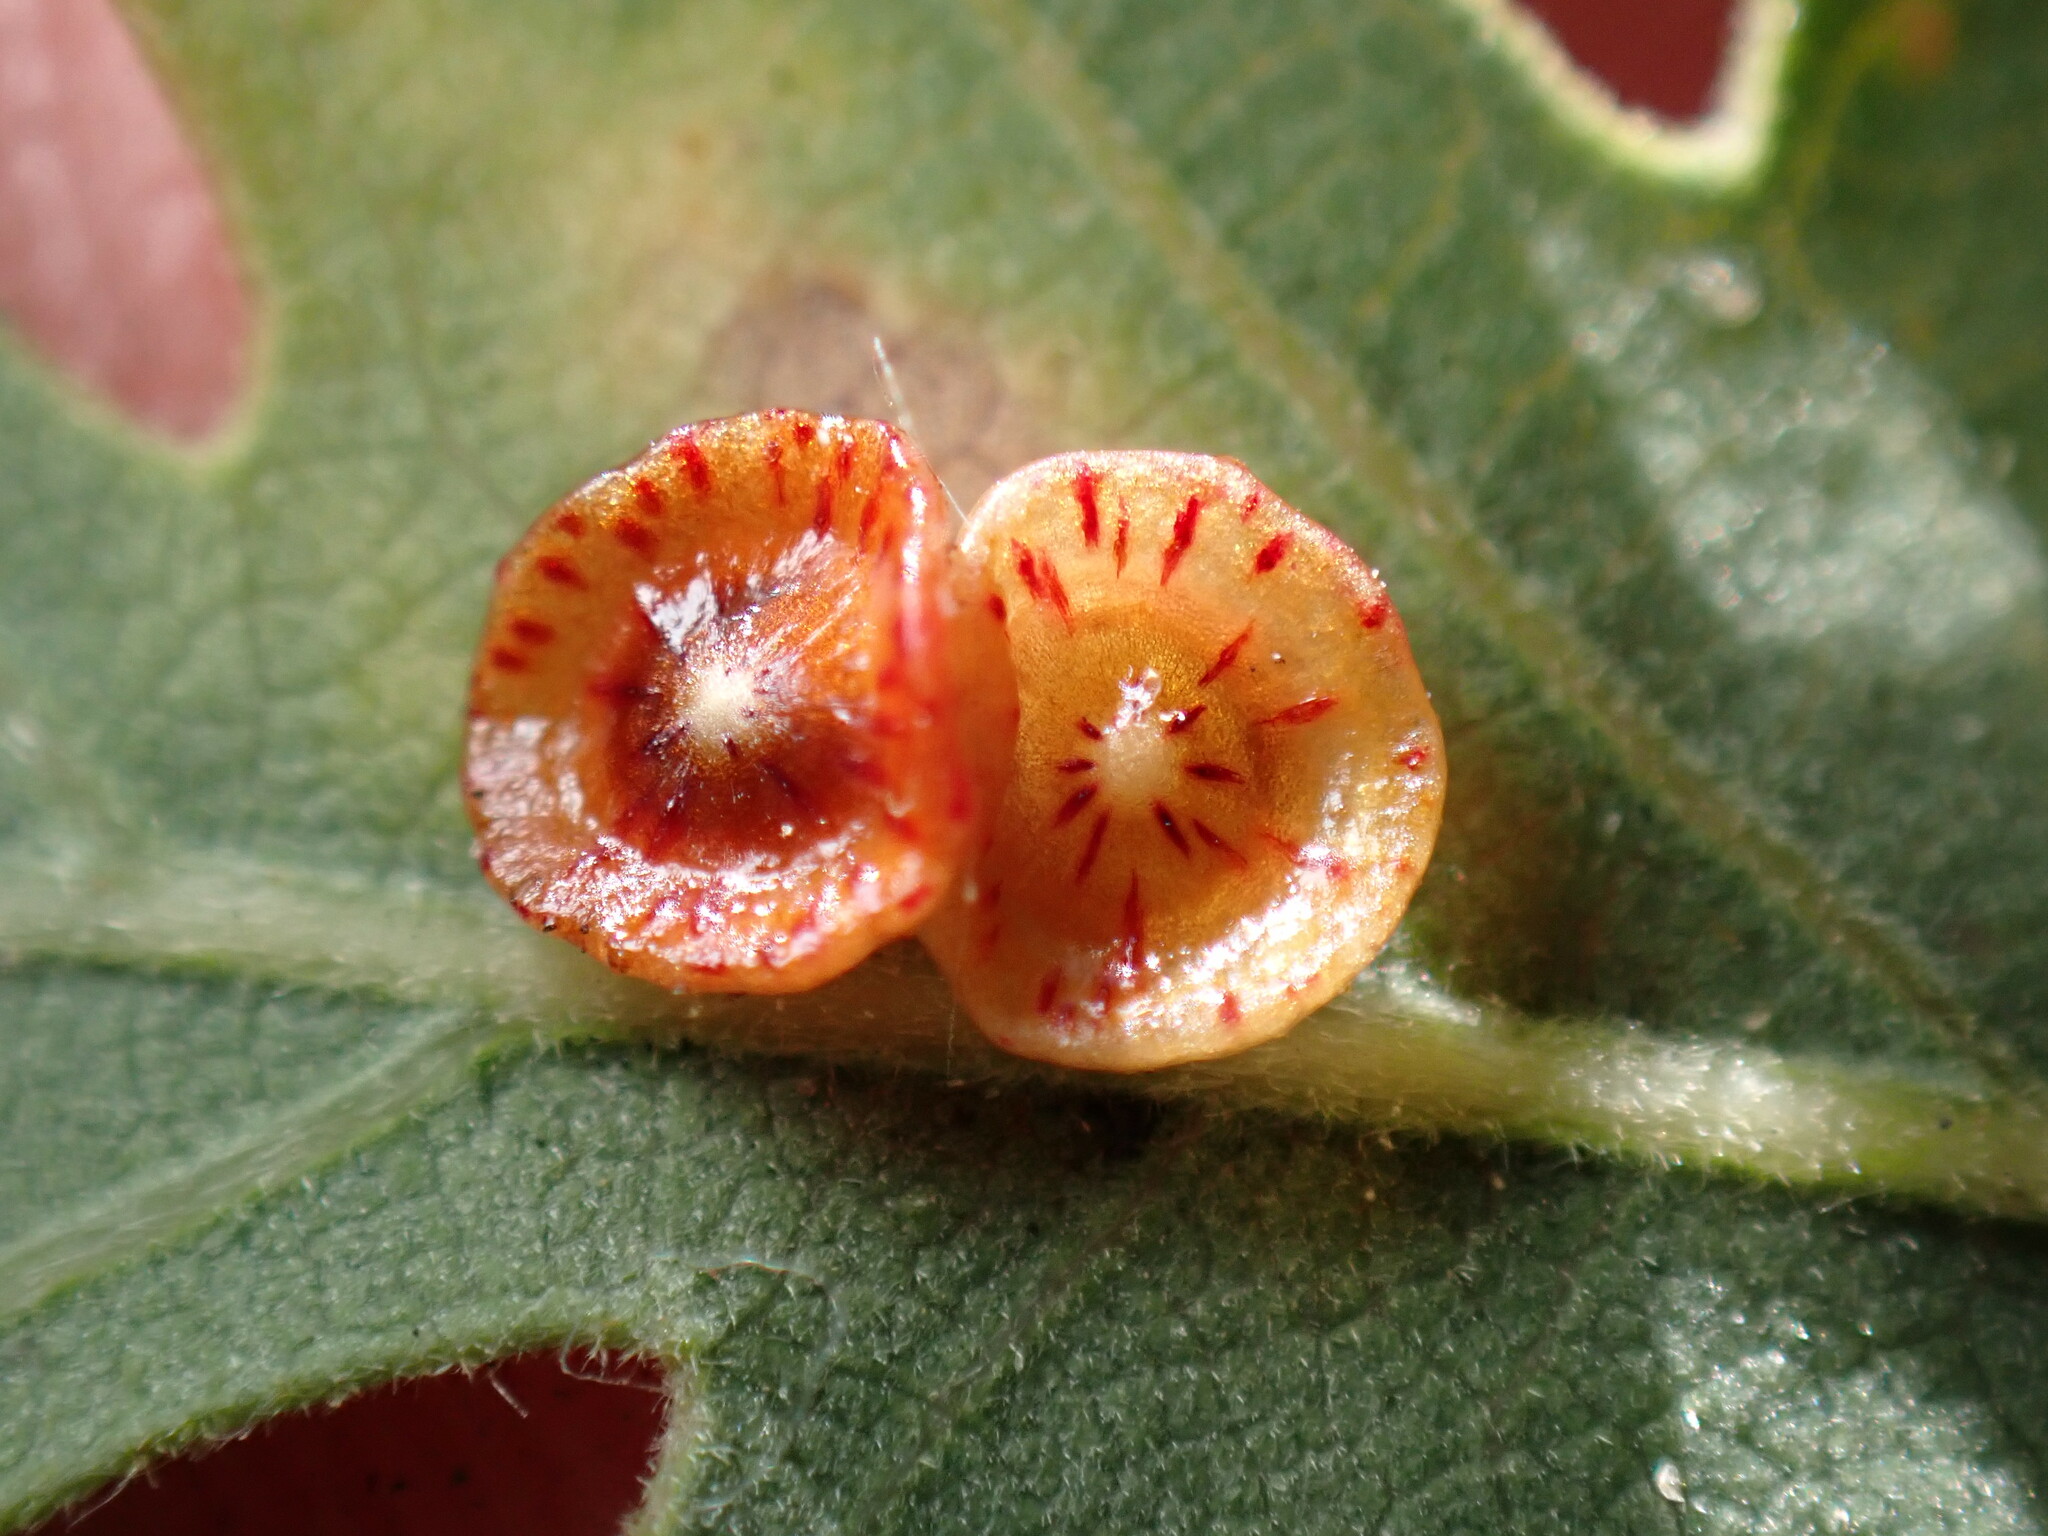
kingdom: Animalia
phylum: Arthropoda
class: Insecta
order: Hymenoptera
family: Cynipidae
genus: Andricus
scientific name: Andricus
